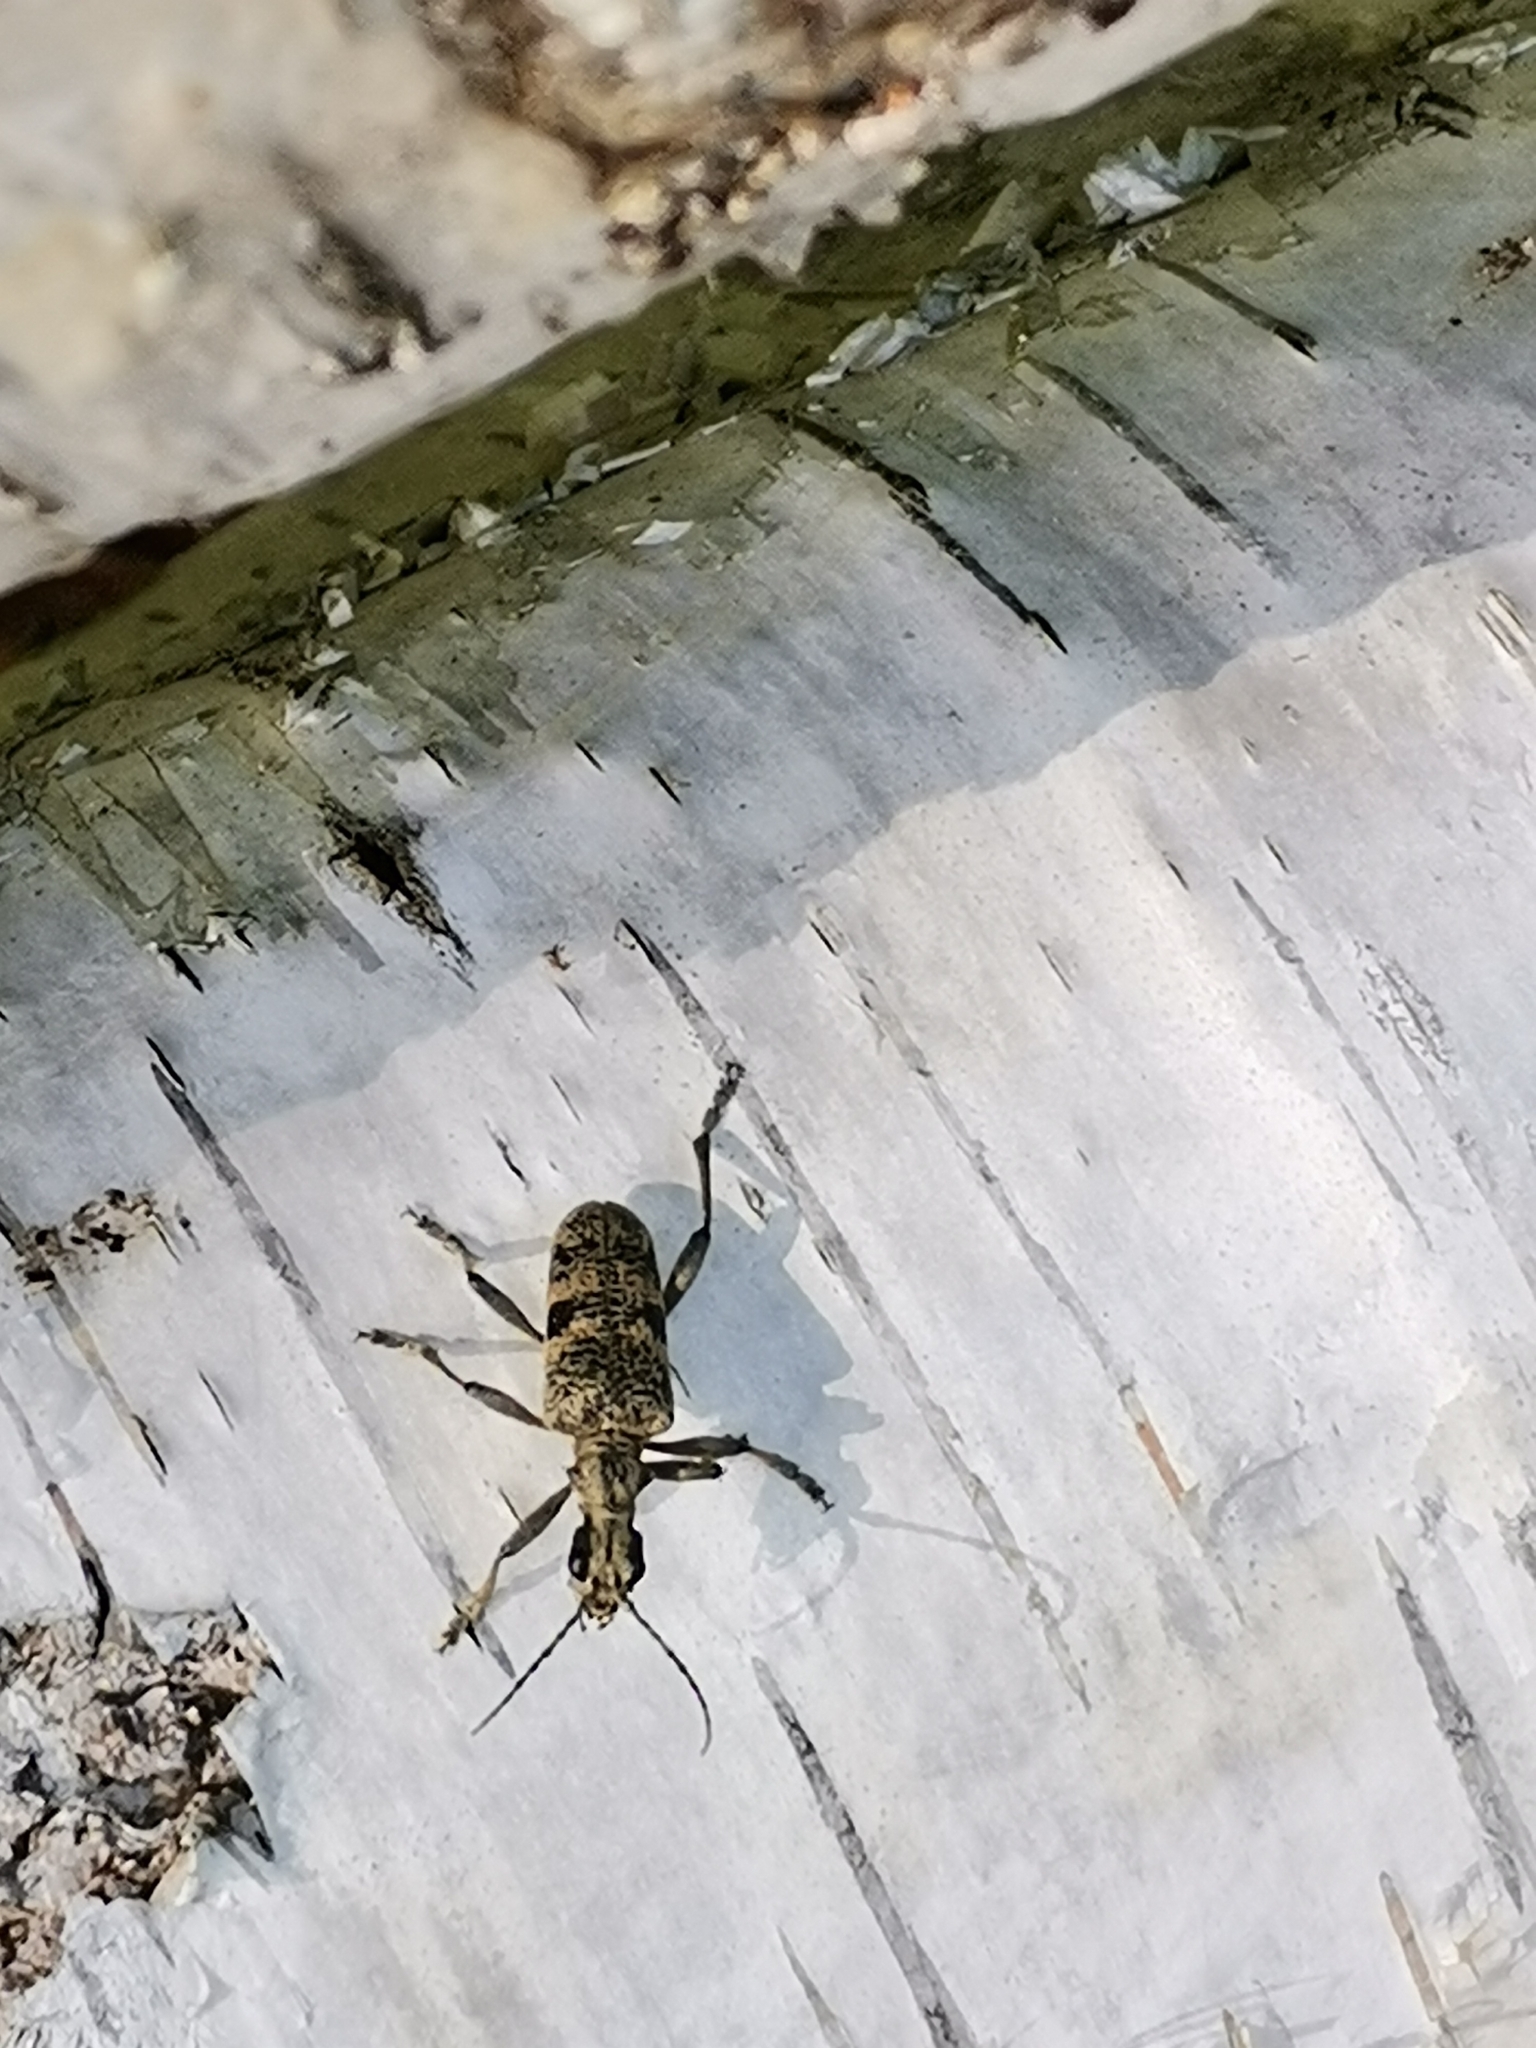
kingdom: Animalia
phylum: Arthropoda
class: Insecta
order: Coleoptera
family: Cerambycidae
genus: Rhagium
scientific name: Rhagium mordax
